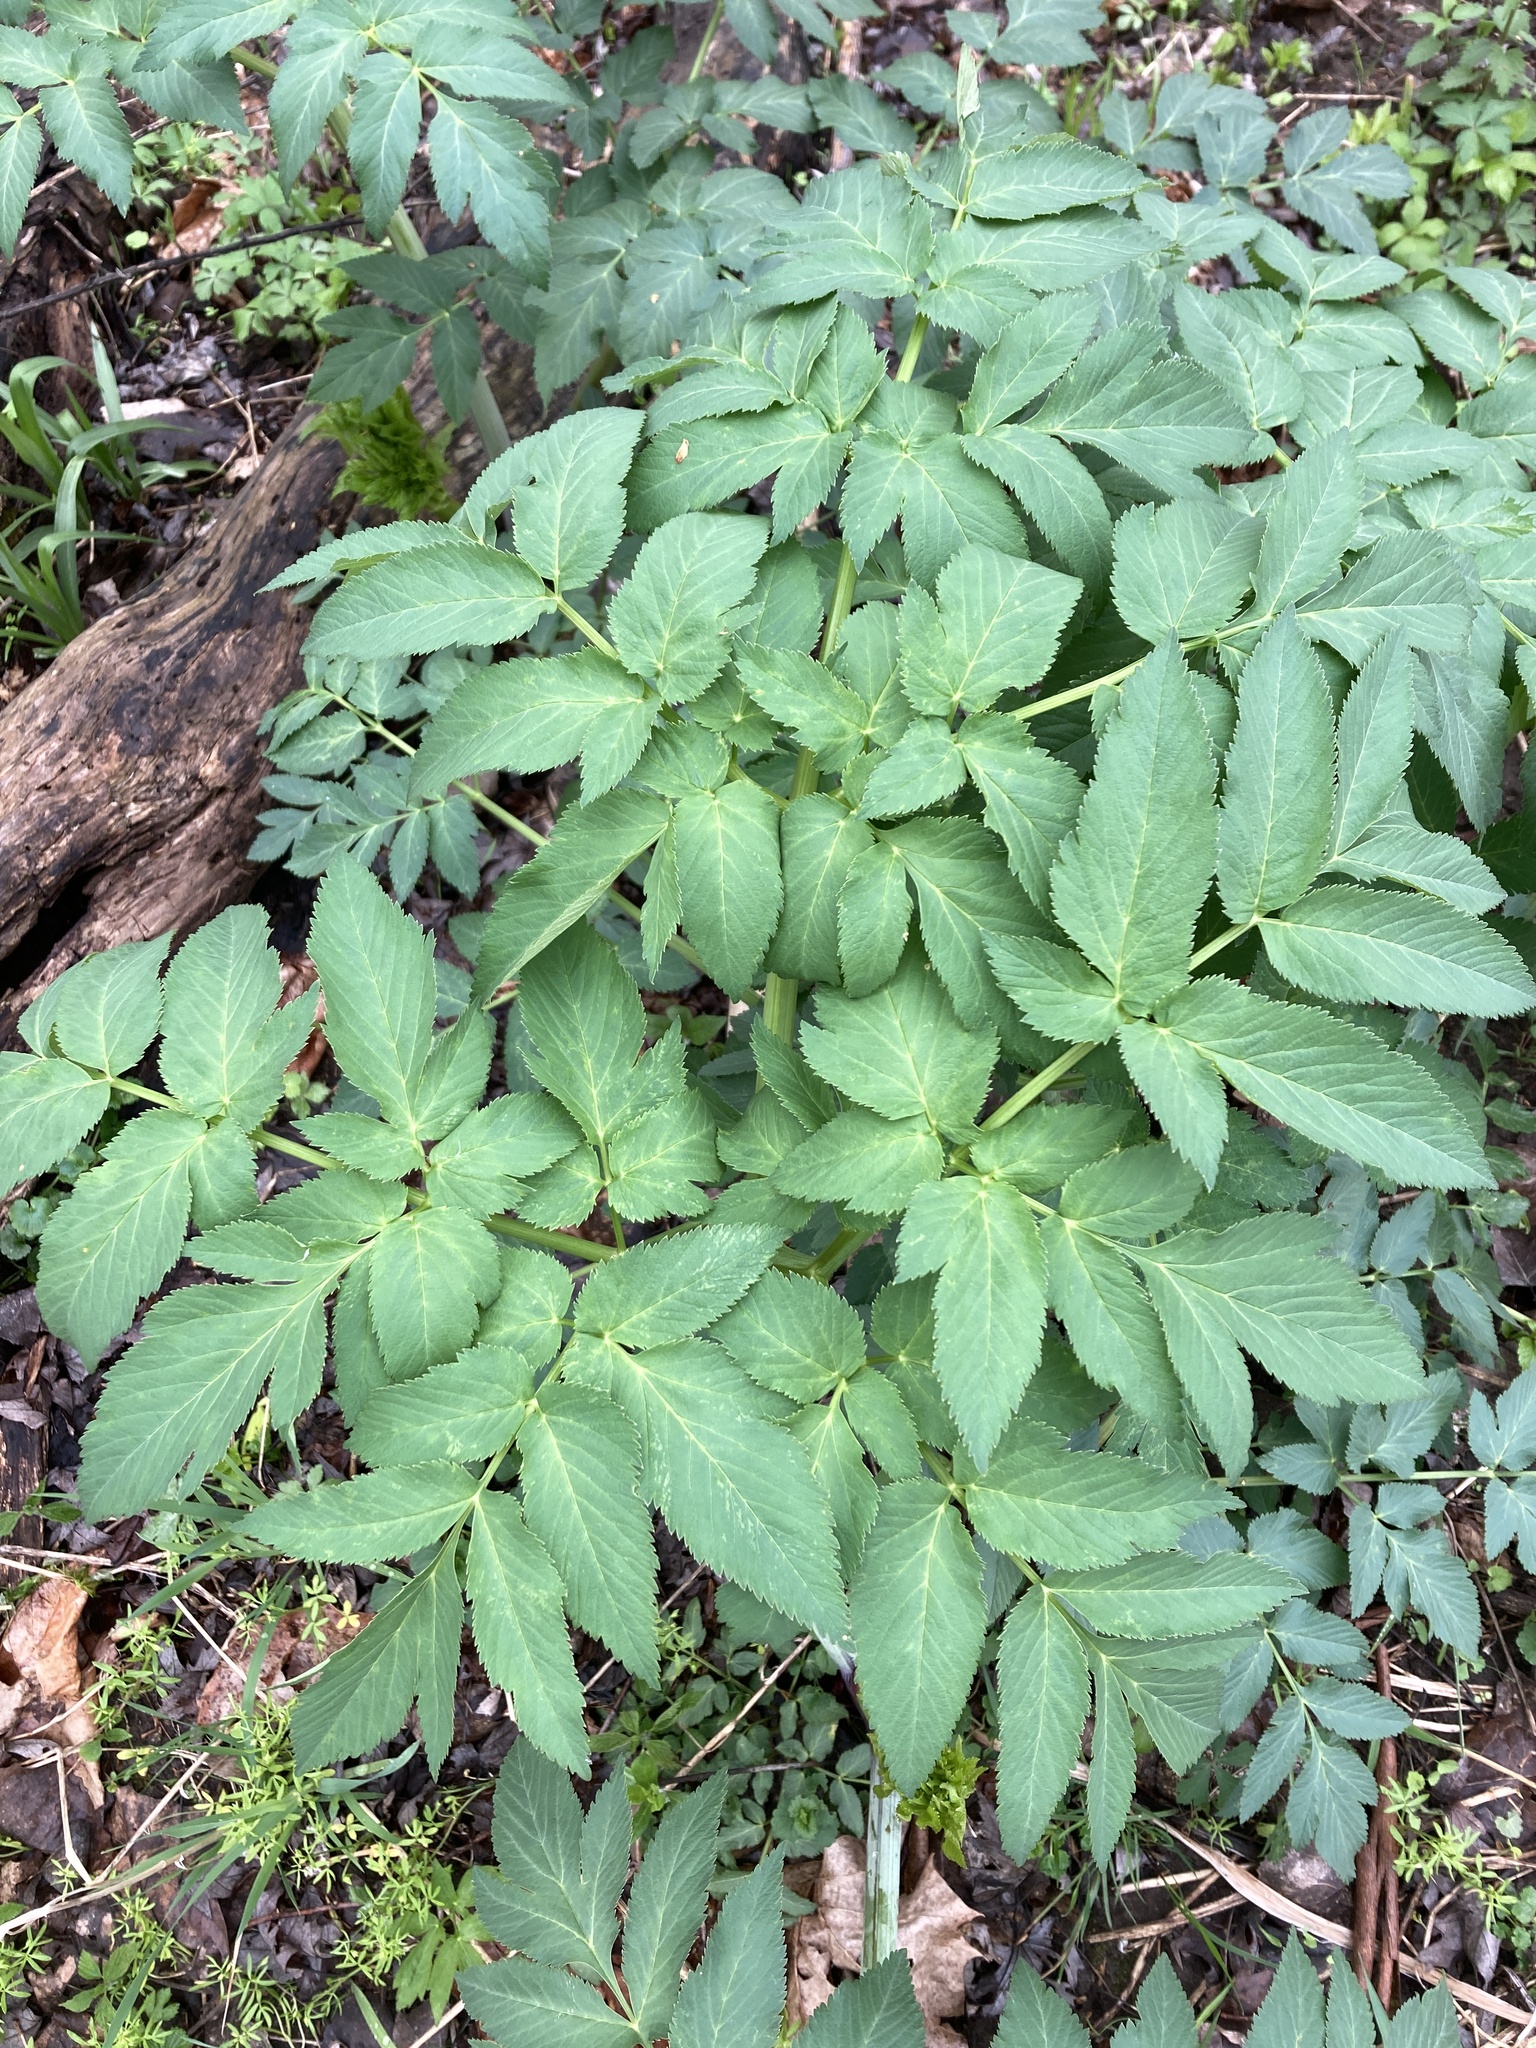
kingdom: Plantae
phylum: Tracheophyta
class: Magnoliopsida
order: Apiales
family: Apiaceae
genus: Angelica
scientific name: Angelica atropurpurea
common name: Great angelica
